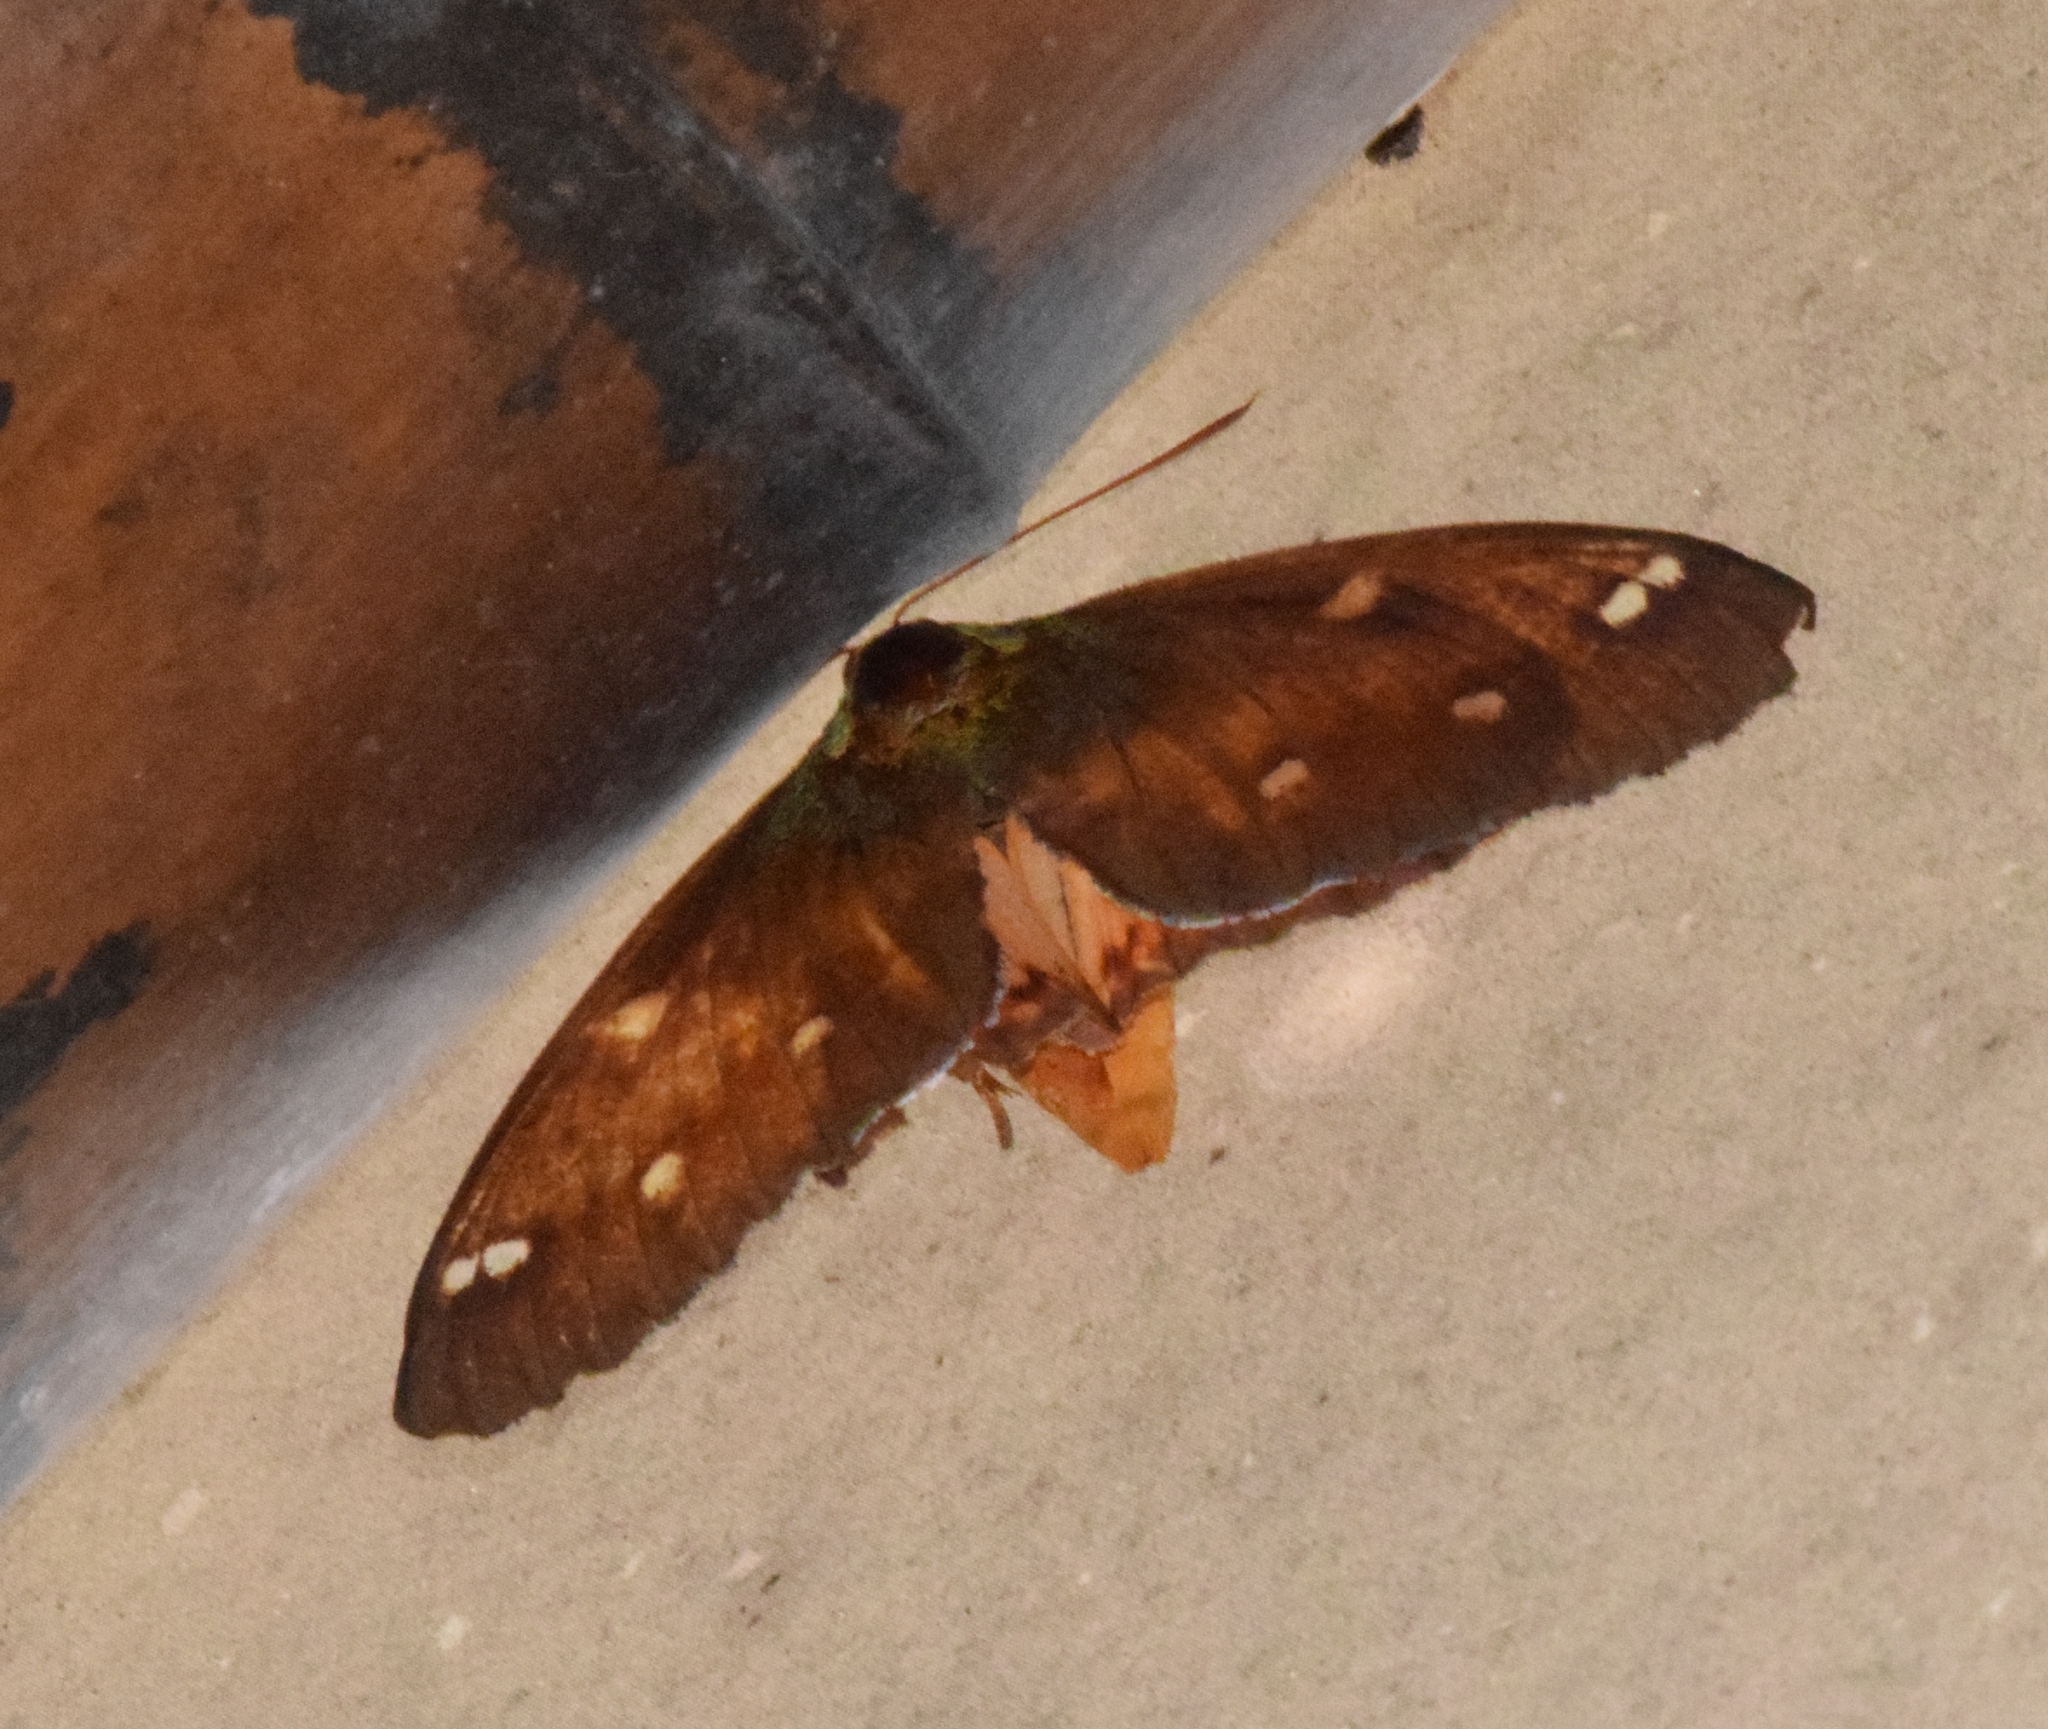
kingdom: Animalia
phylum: Arthropoda
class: Insecta
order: Lepidoptera
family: Castniidae
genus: Yagra
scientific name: Yagra fonscolombe
